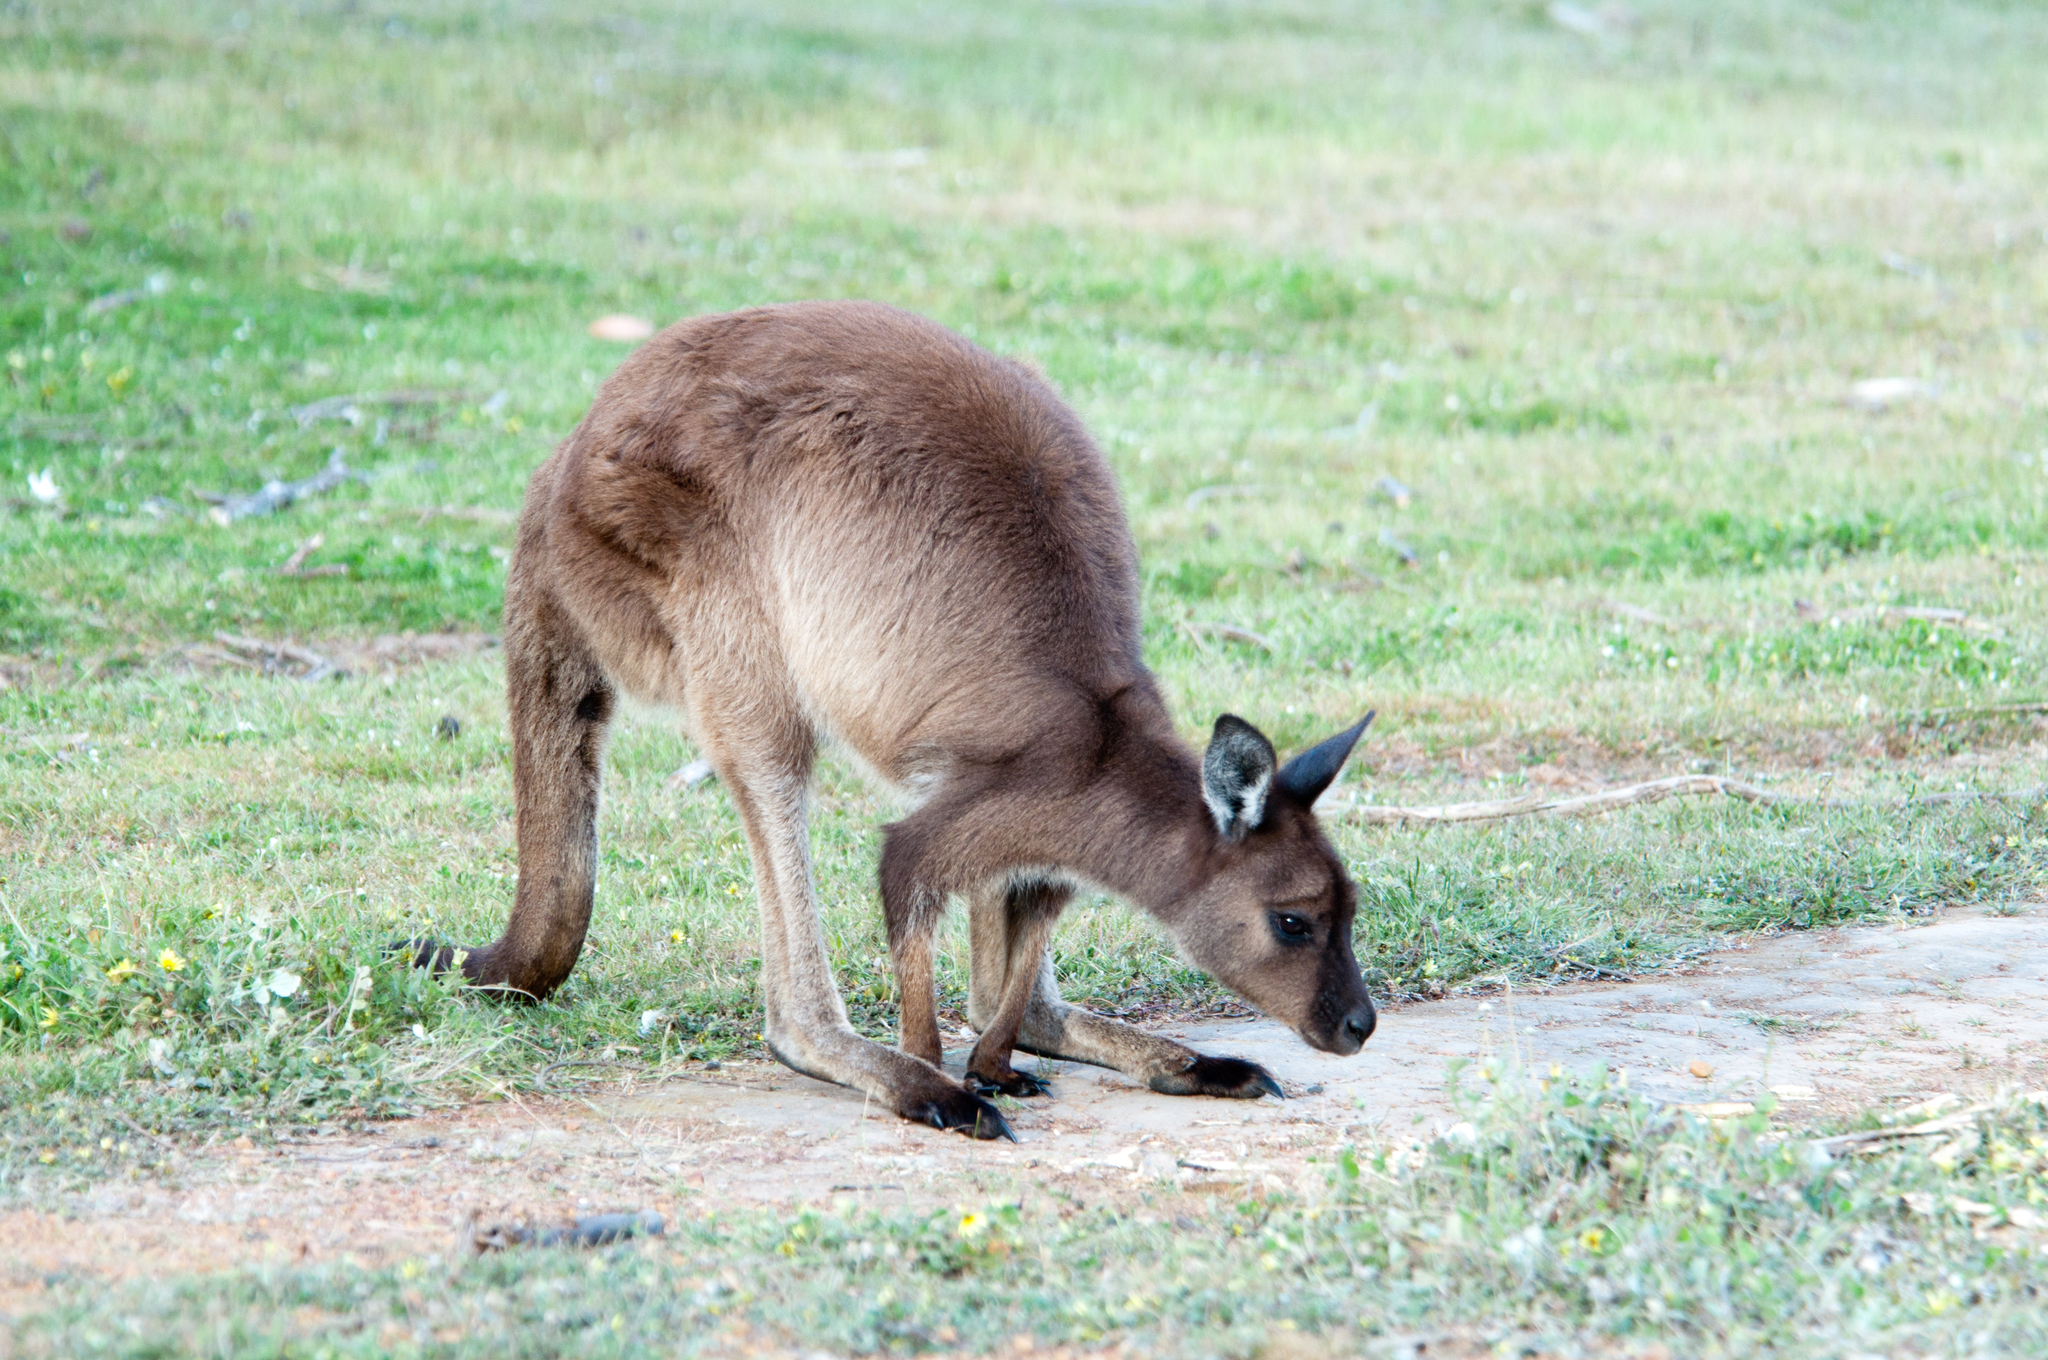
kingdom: Animalia
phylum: Chordata
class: Mammalia
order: Diprotodontia
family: Macropodidae
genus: Macropus
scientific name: Macropus fuliginosus
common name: Western grey kangaroo
